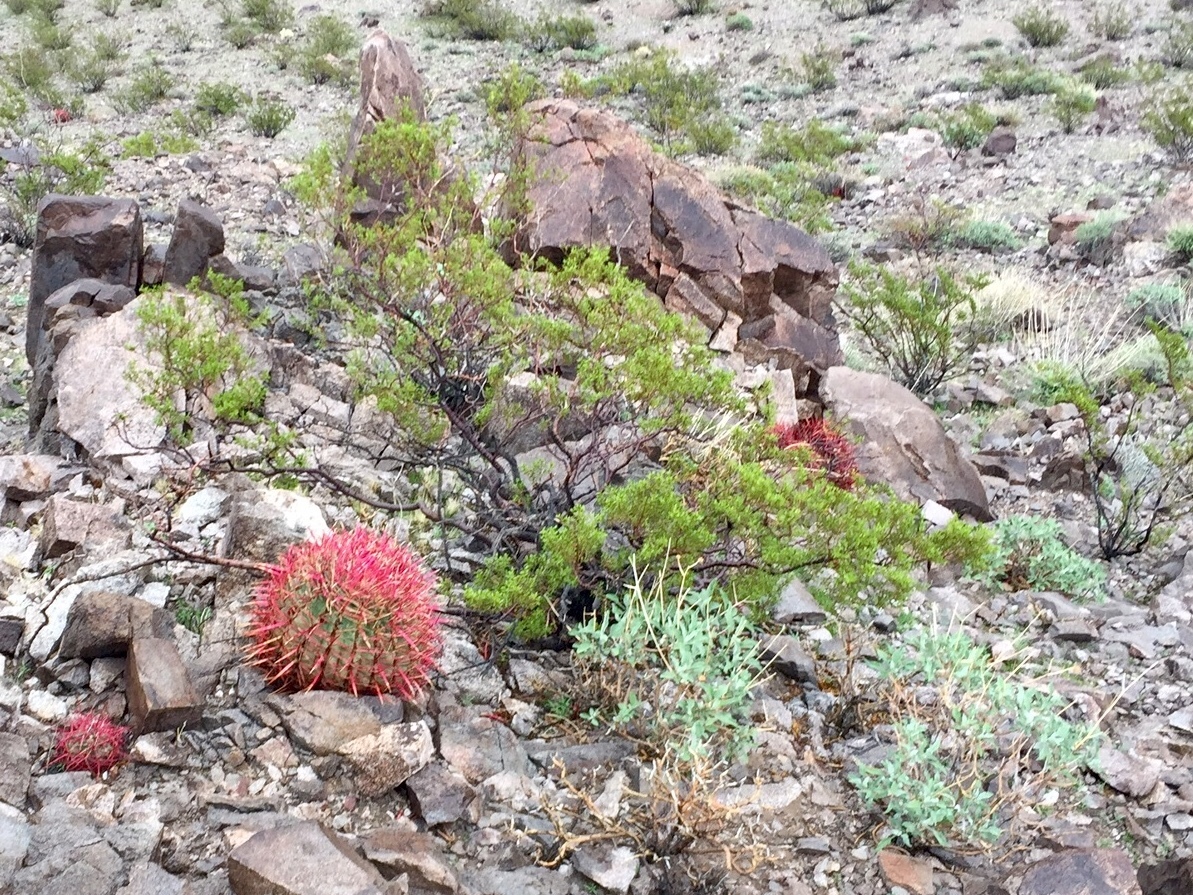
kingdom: Plantae
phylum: Tracheophyta
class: Magnoliopsida
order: Zygophyllales
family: Zygophyllaceae
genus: Larrea
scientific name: Larrea tridentata
